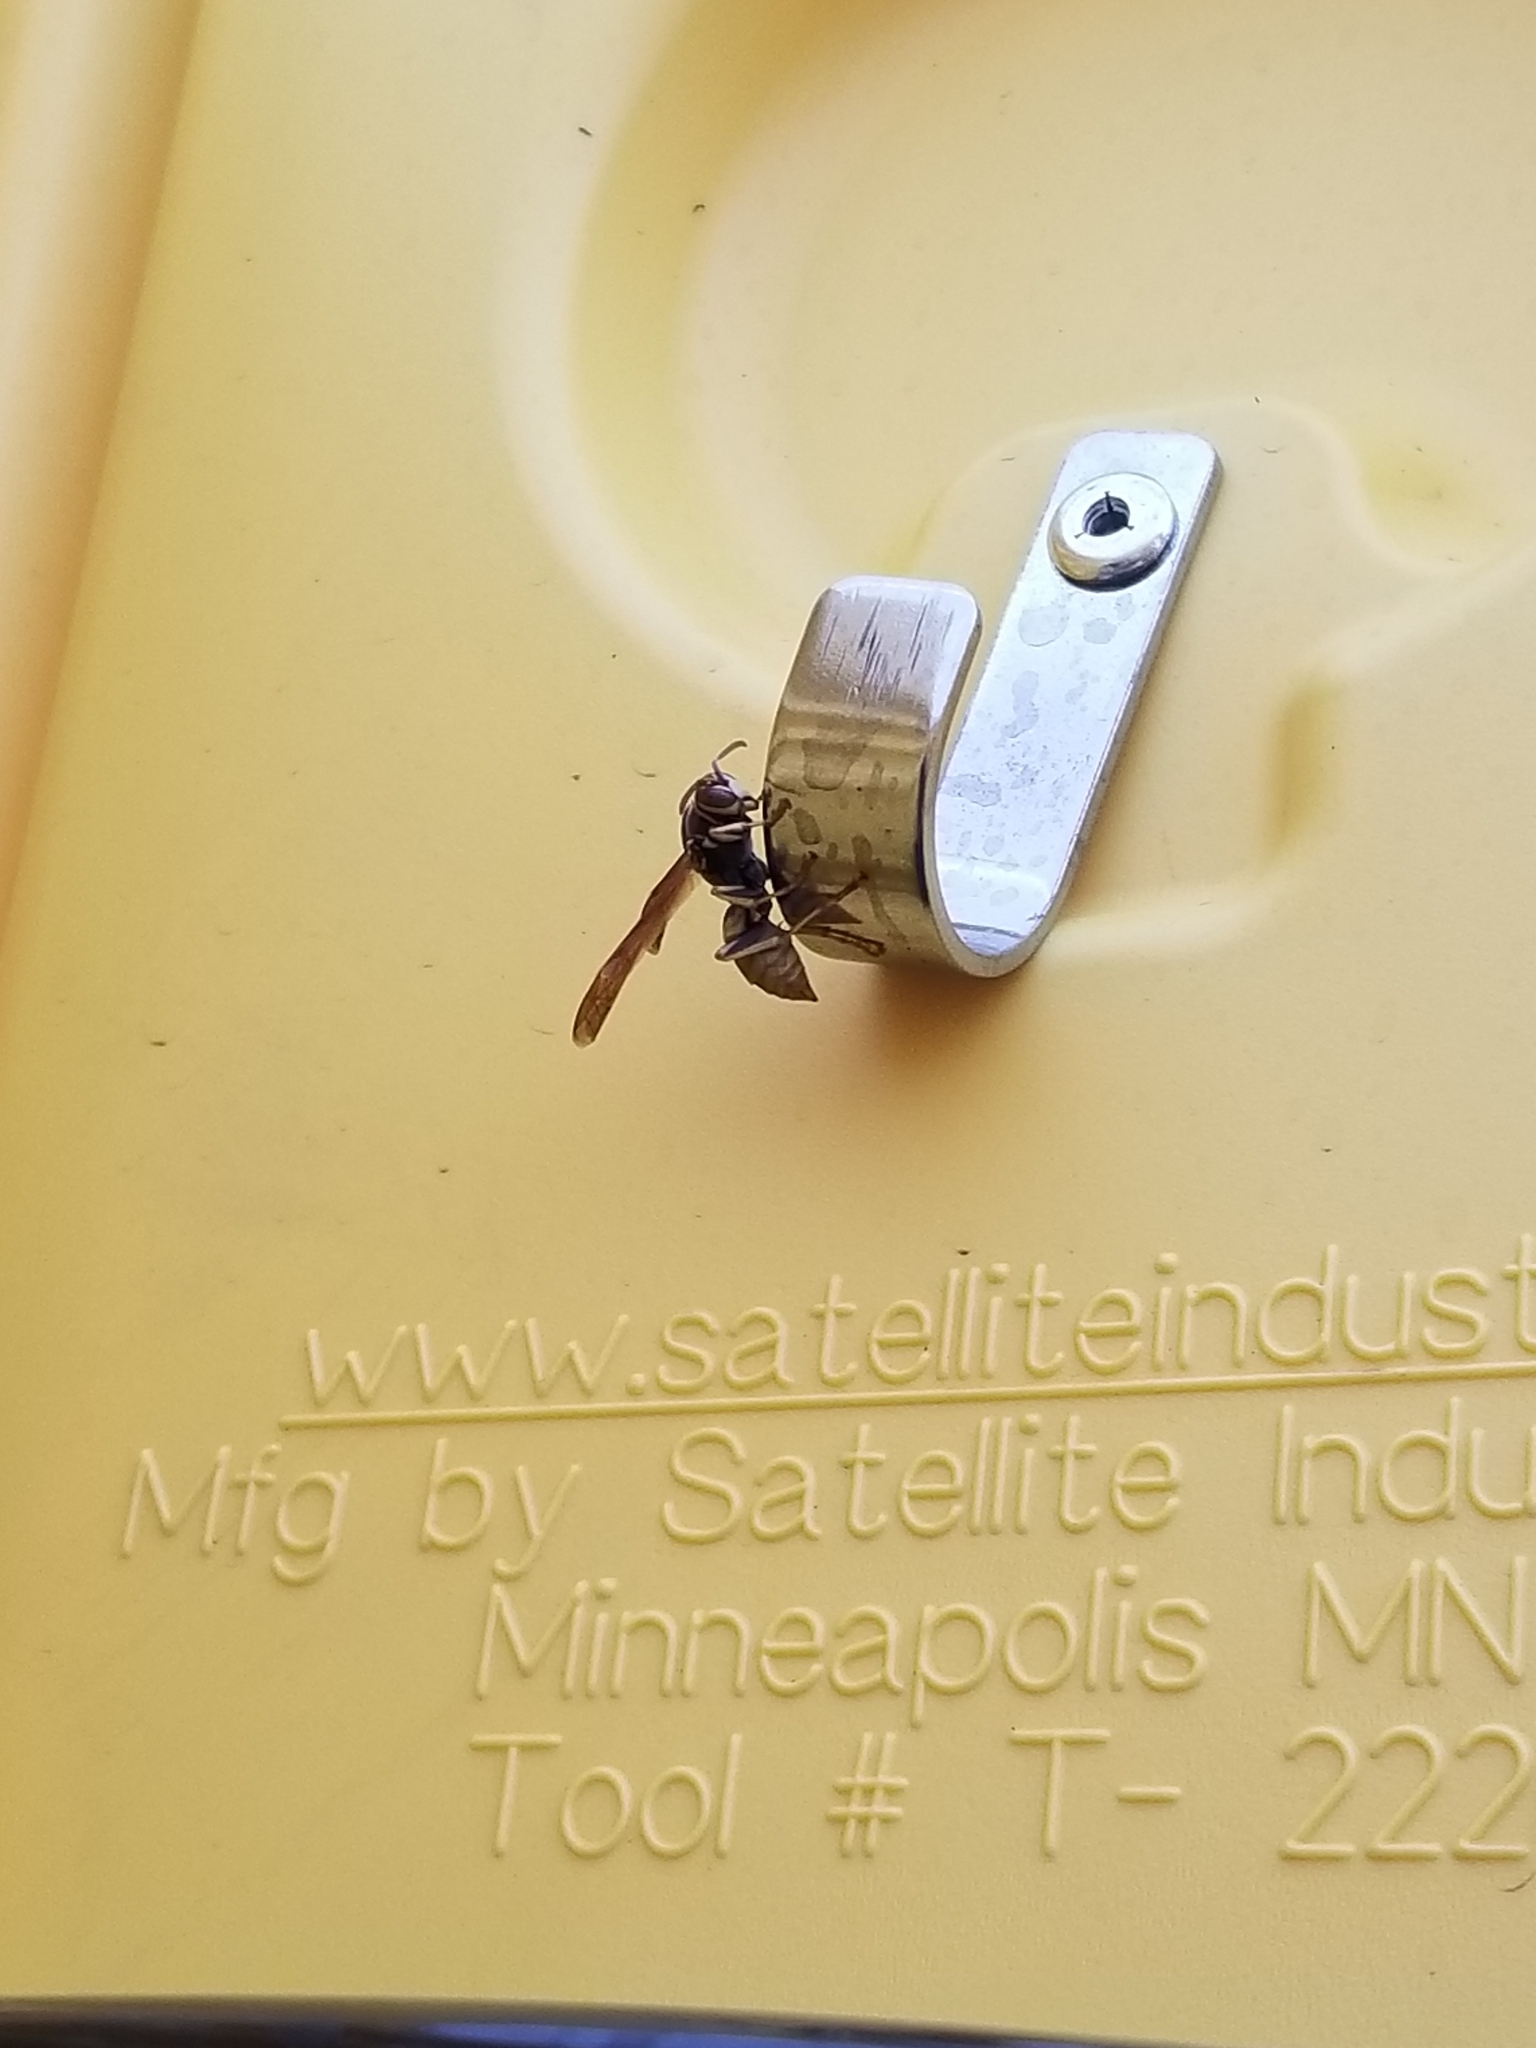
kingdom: Animalia
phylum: Arthropoda
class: Insecta
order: Hymenoptera
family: Eumenidae
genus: Polistes
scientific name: Polistes aurifer
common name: Paper wasp
